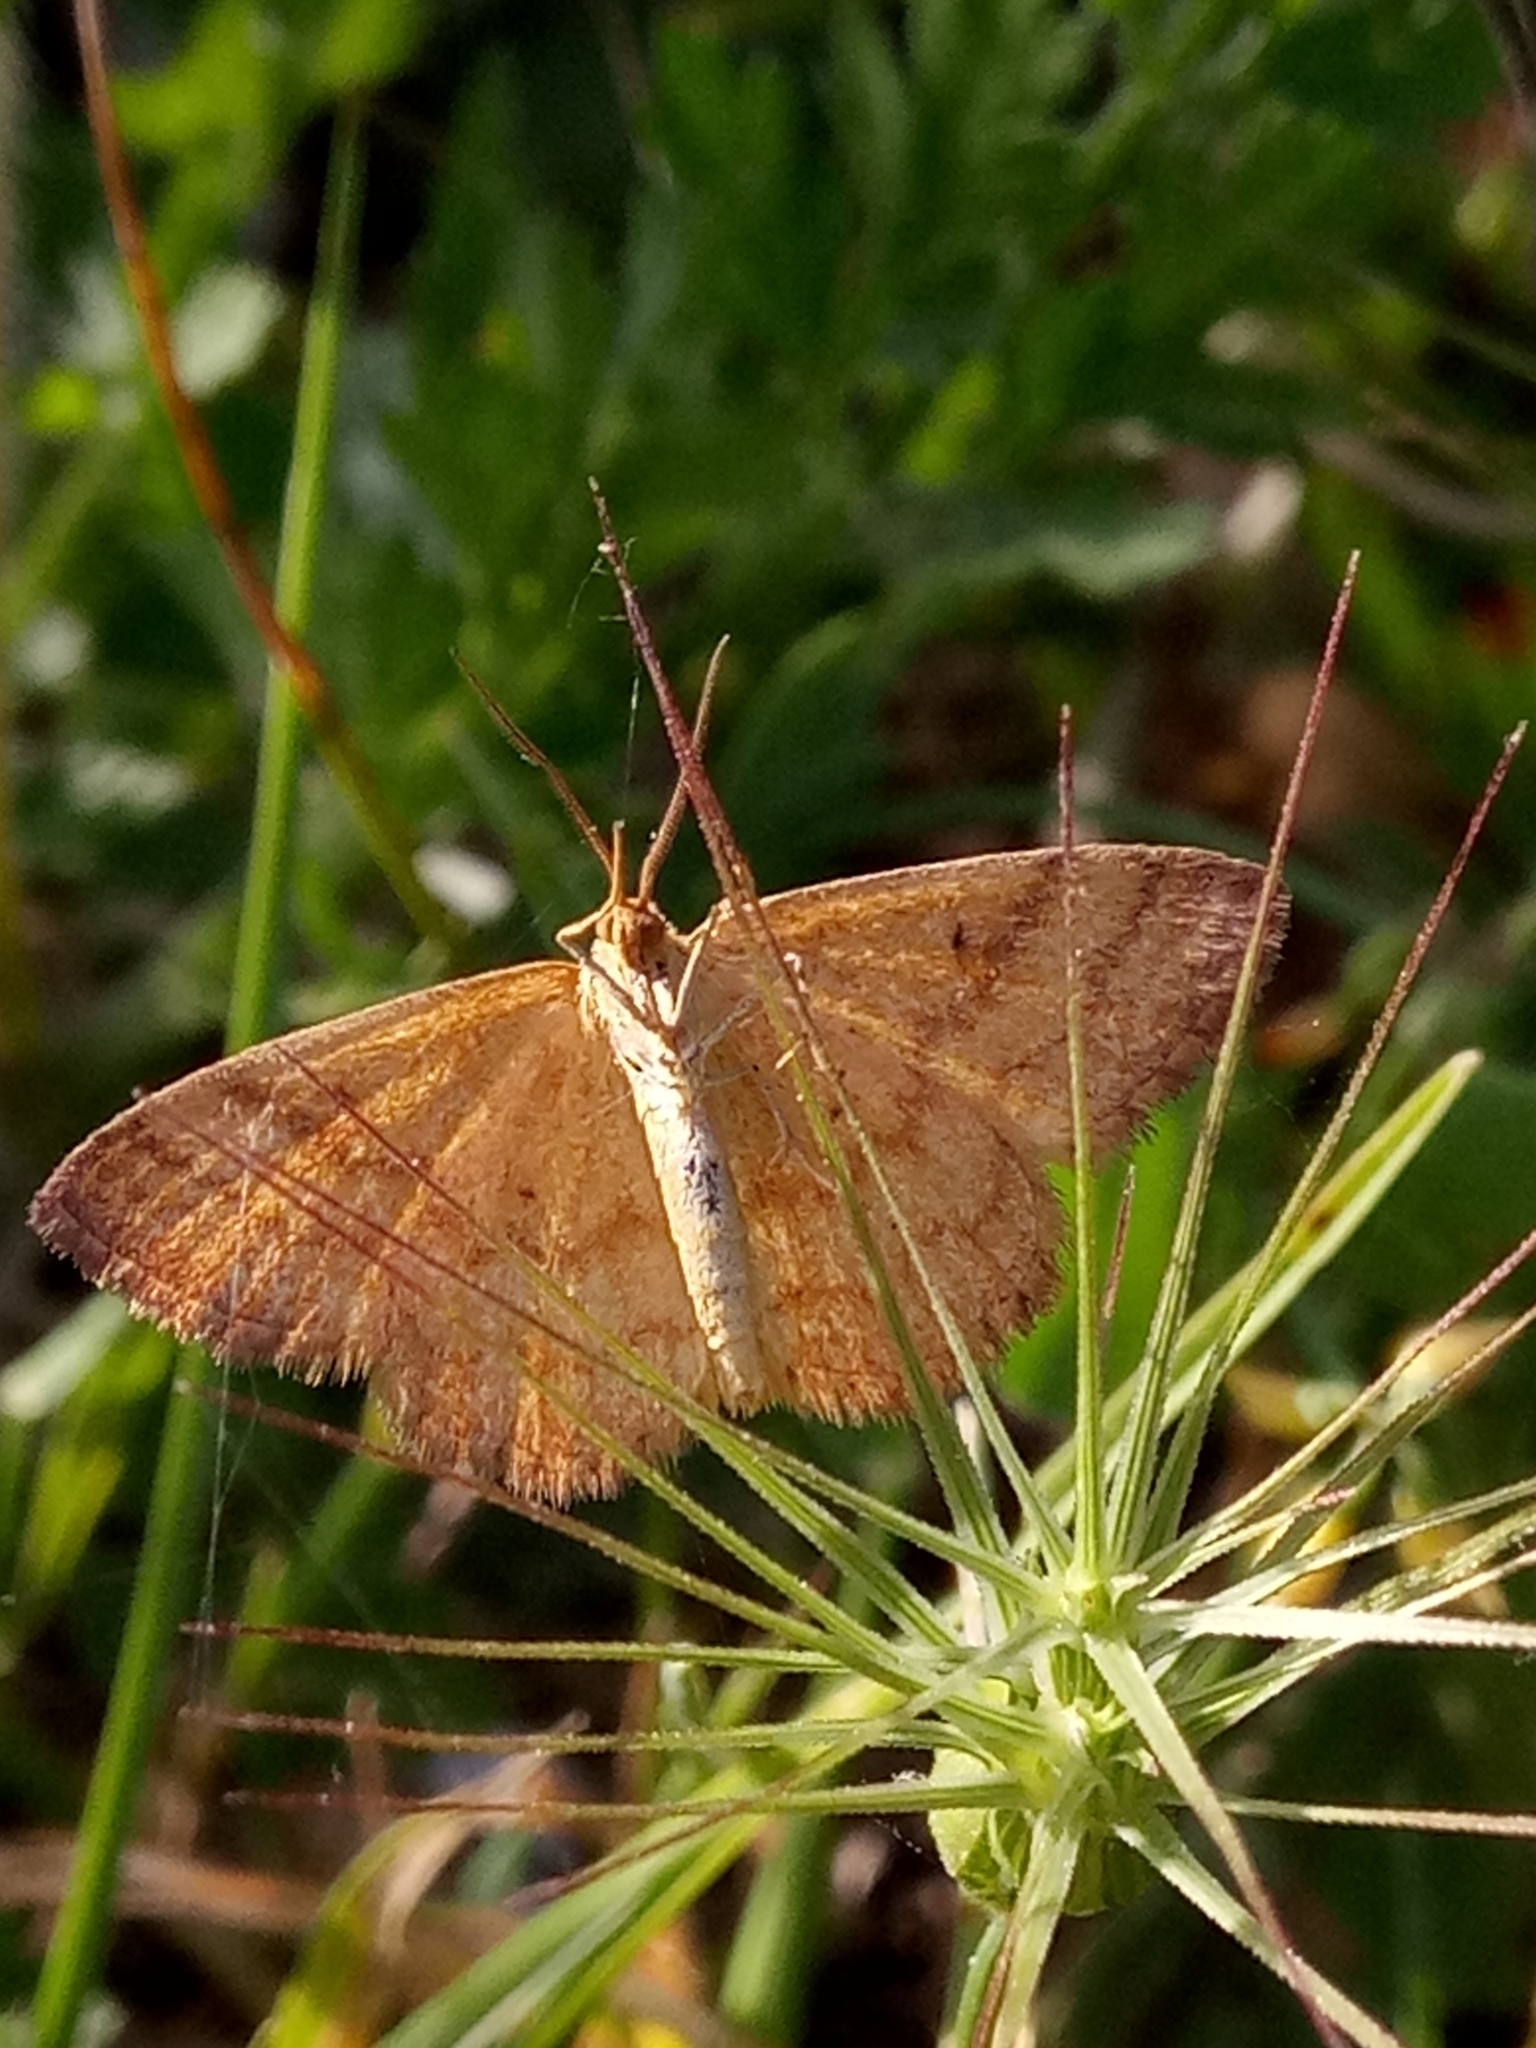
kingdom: Animalia
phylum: Arthropoda
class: Insecta
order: Lepidoptera
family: Geometridae
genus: Idaea
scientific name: Idaea numidaria
